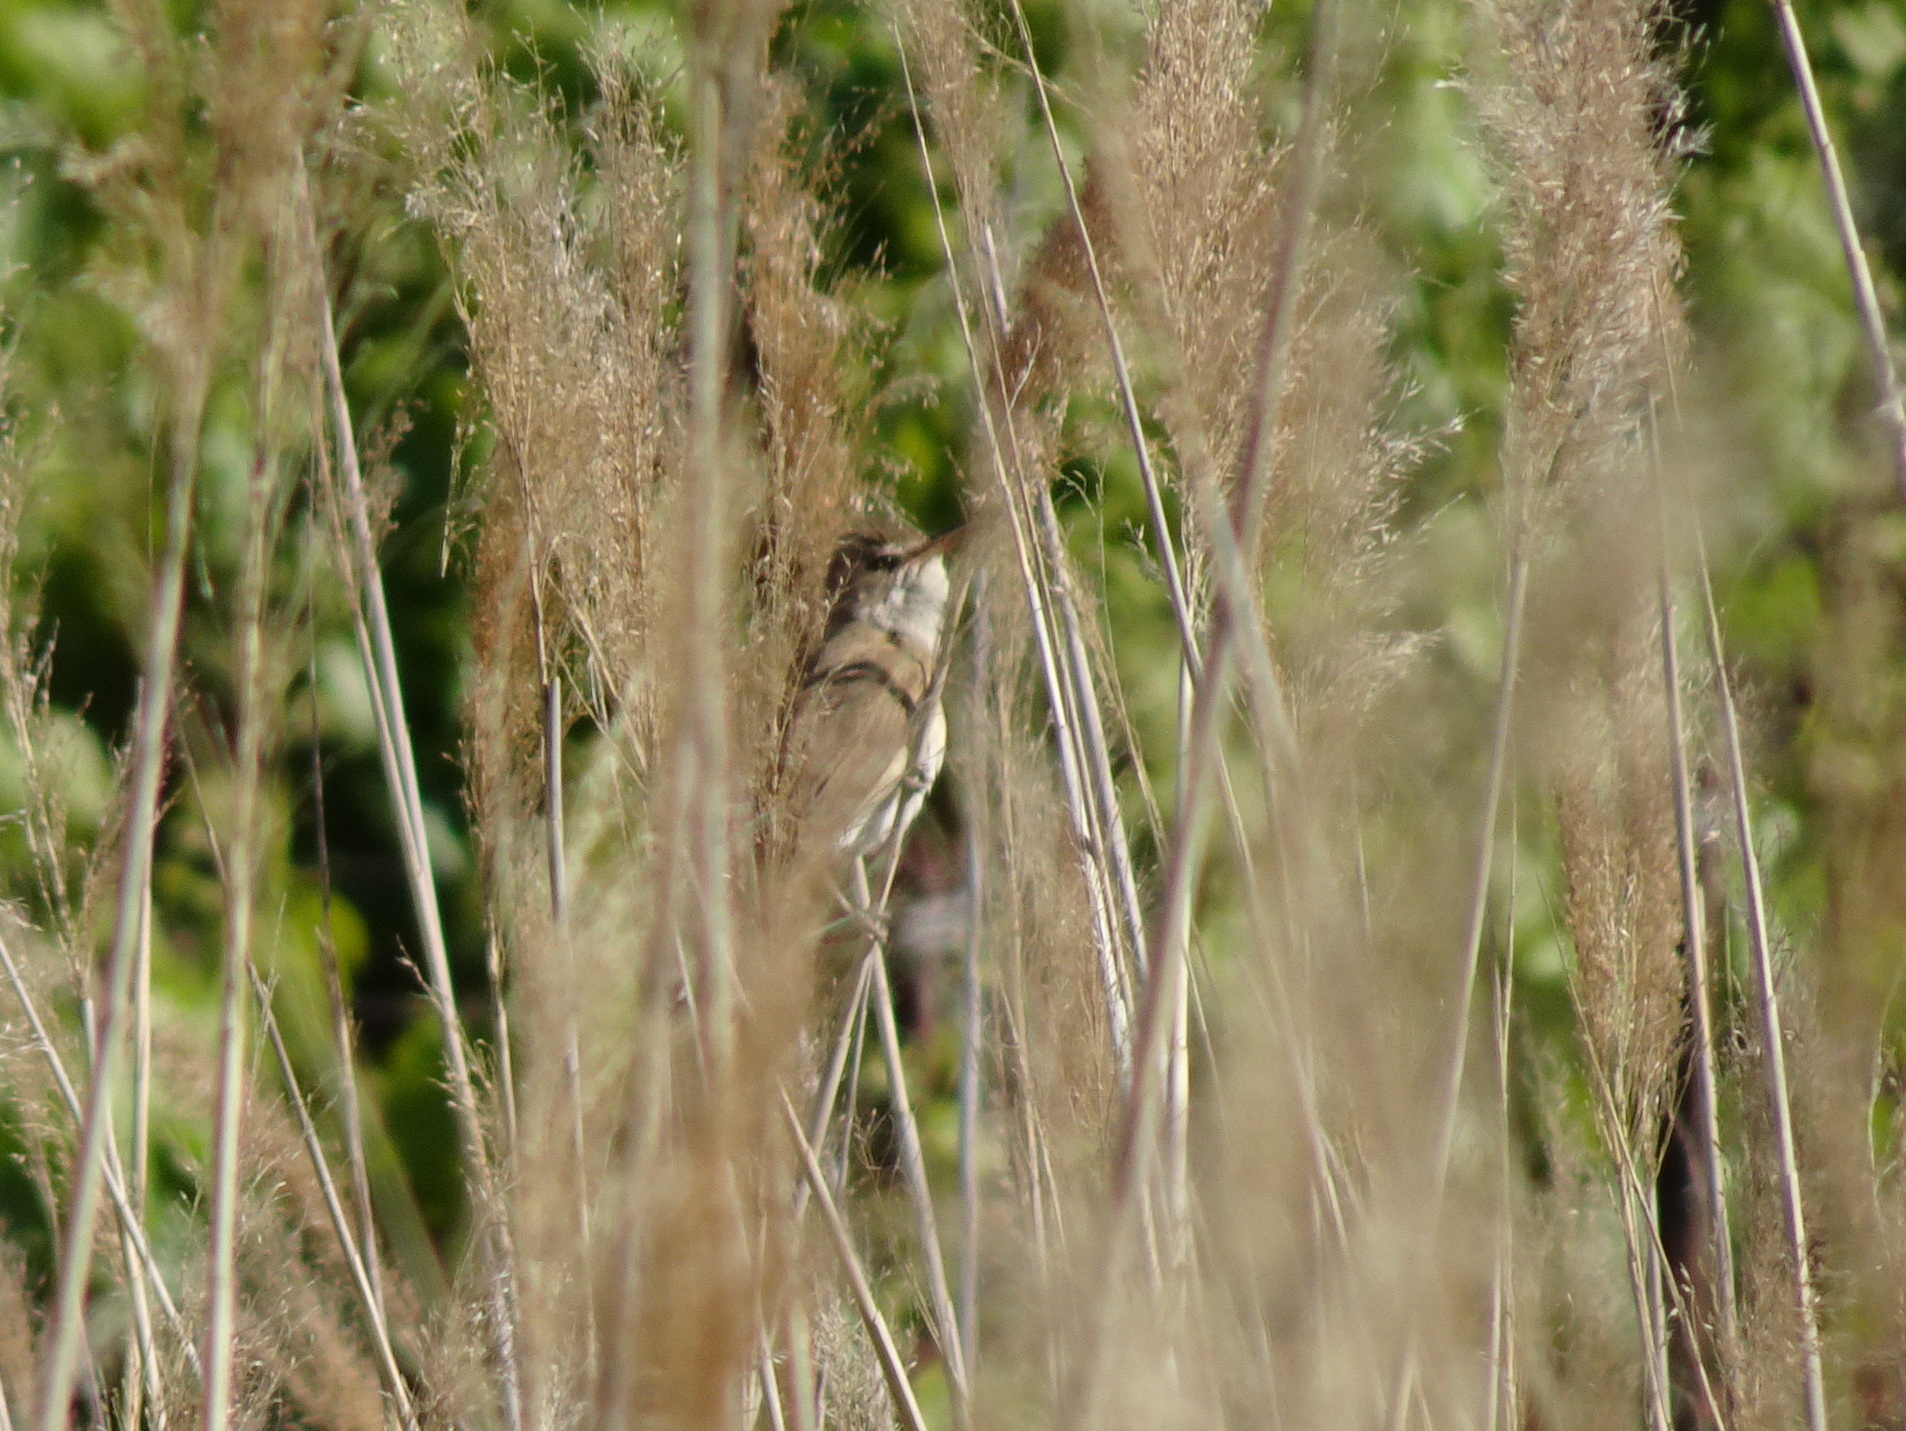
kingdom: Animalia
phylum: Chordata
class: Aves
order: Passeriformes
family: Acrocephalidae
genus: Acrocephalus
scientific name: Acrocephalus arundinaceus
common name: Great reed warbler
